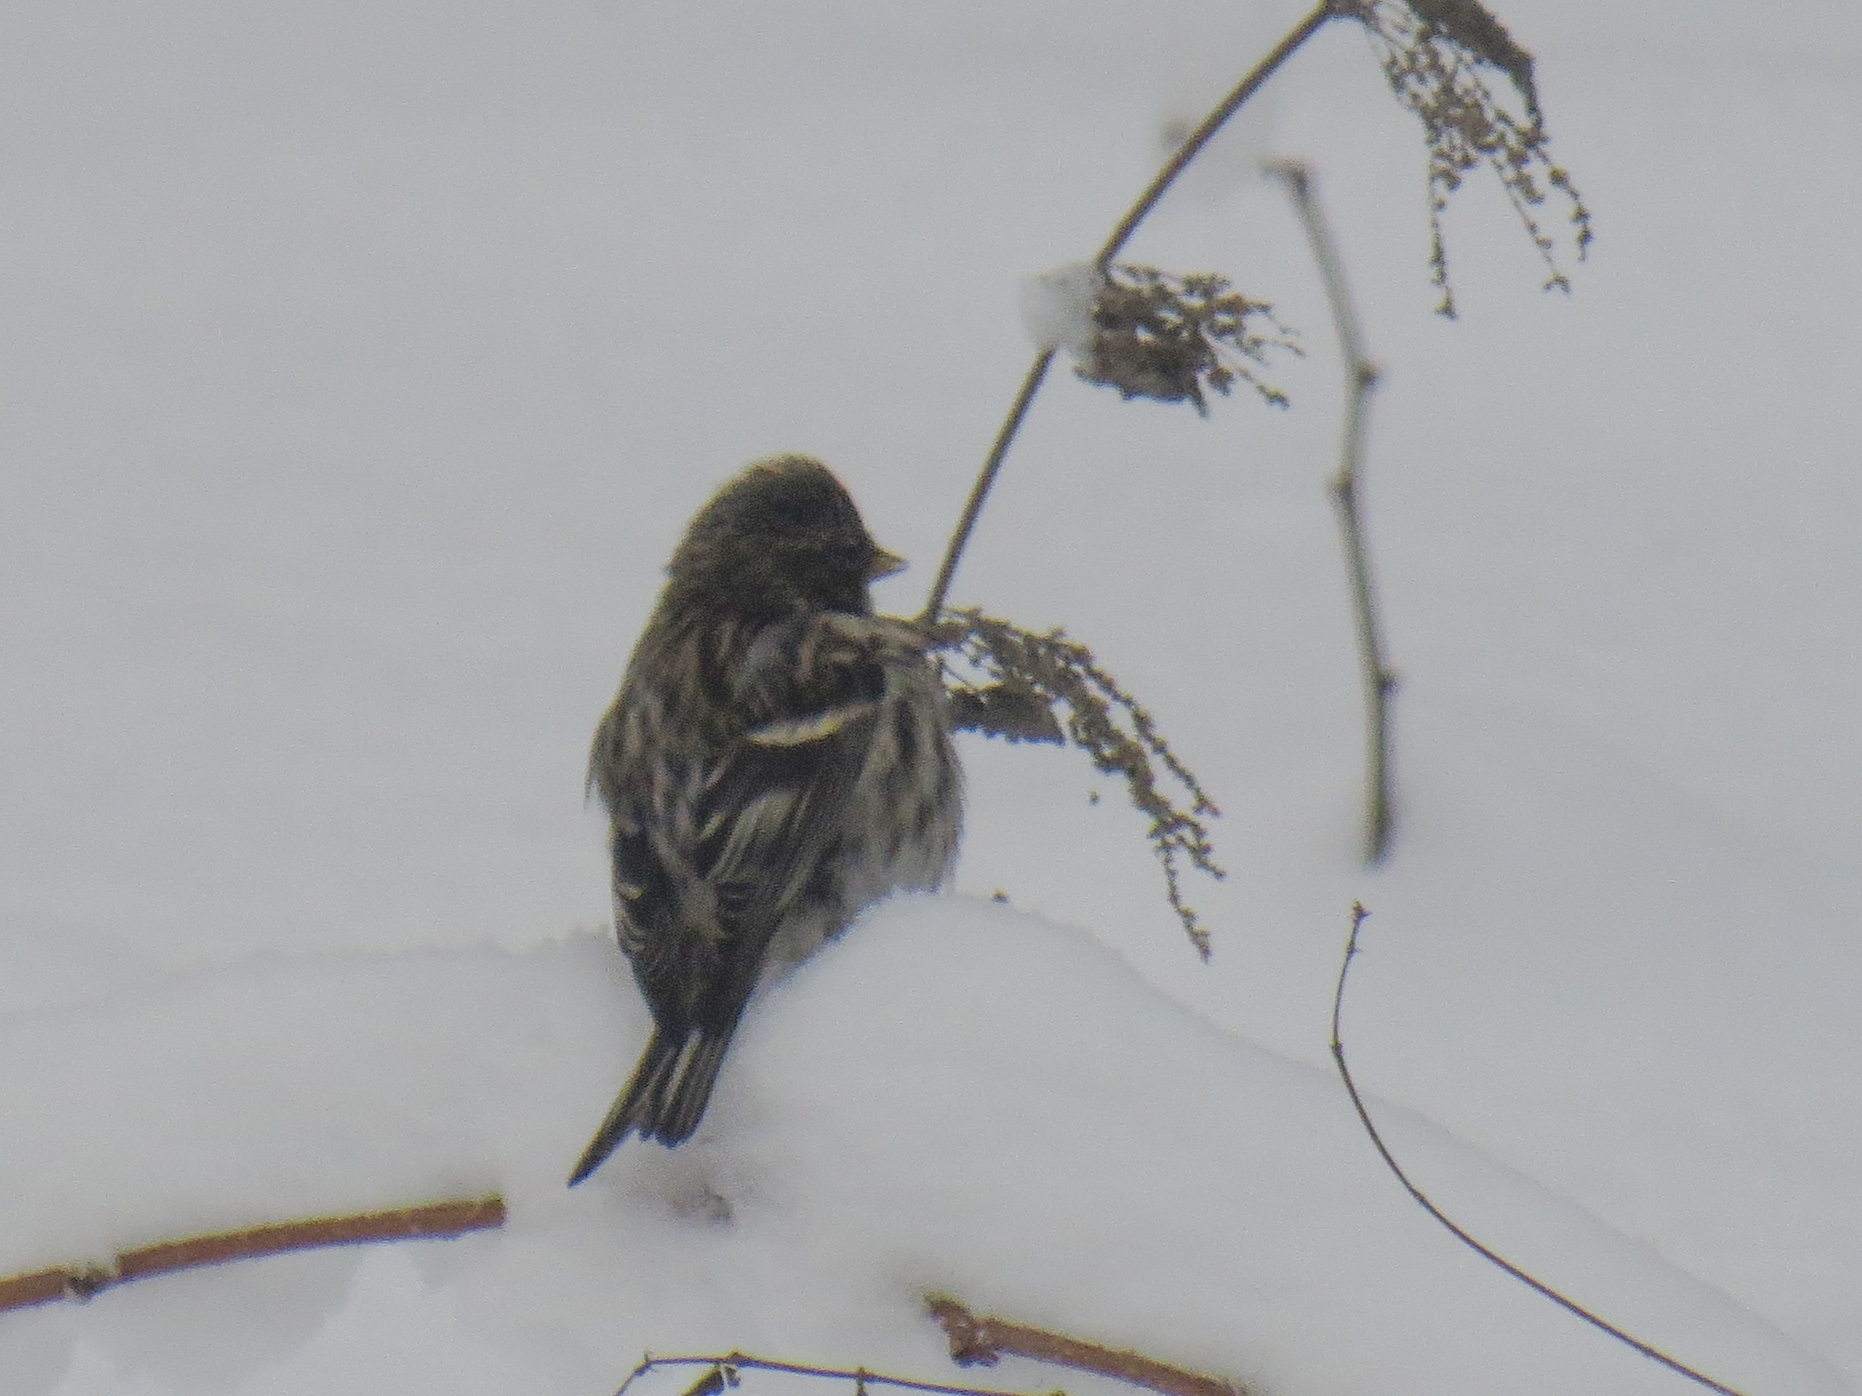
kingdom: Animalia
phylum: Chordata
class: Aves
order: Passeriformes
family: Fringillidae
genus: Acanthis
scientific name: Acanthis flammea
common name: Common redpoll
